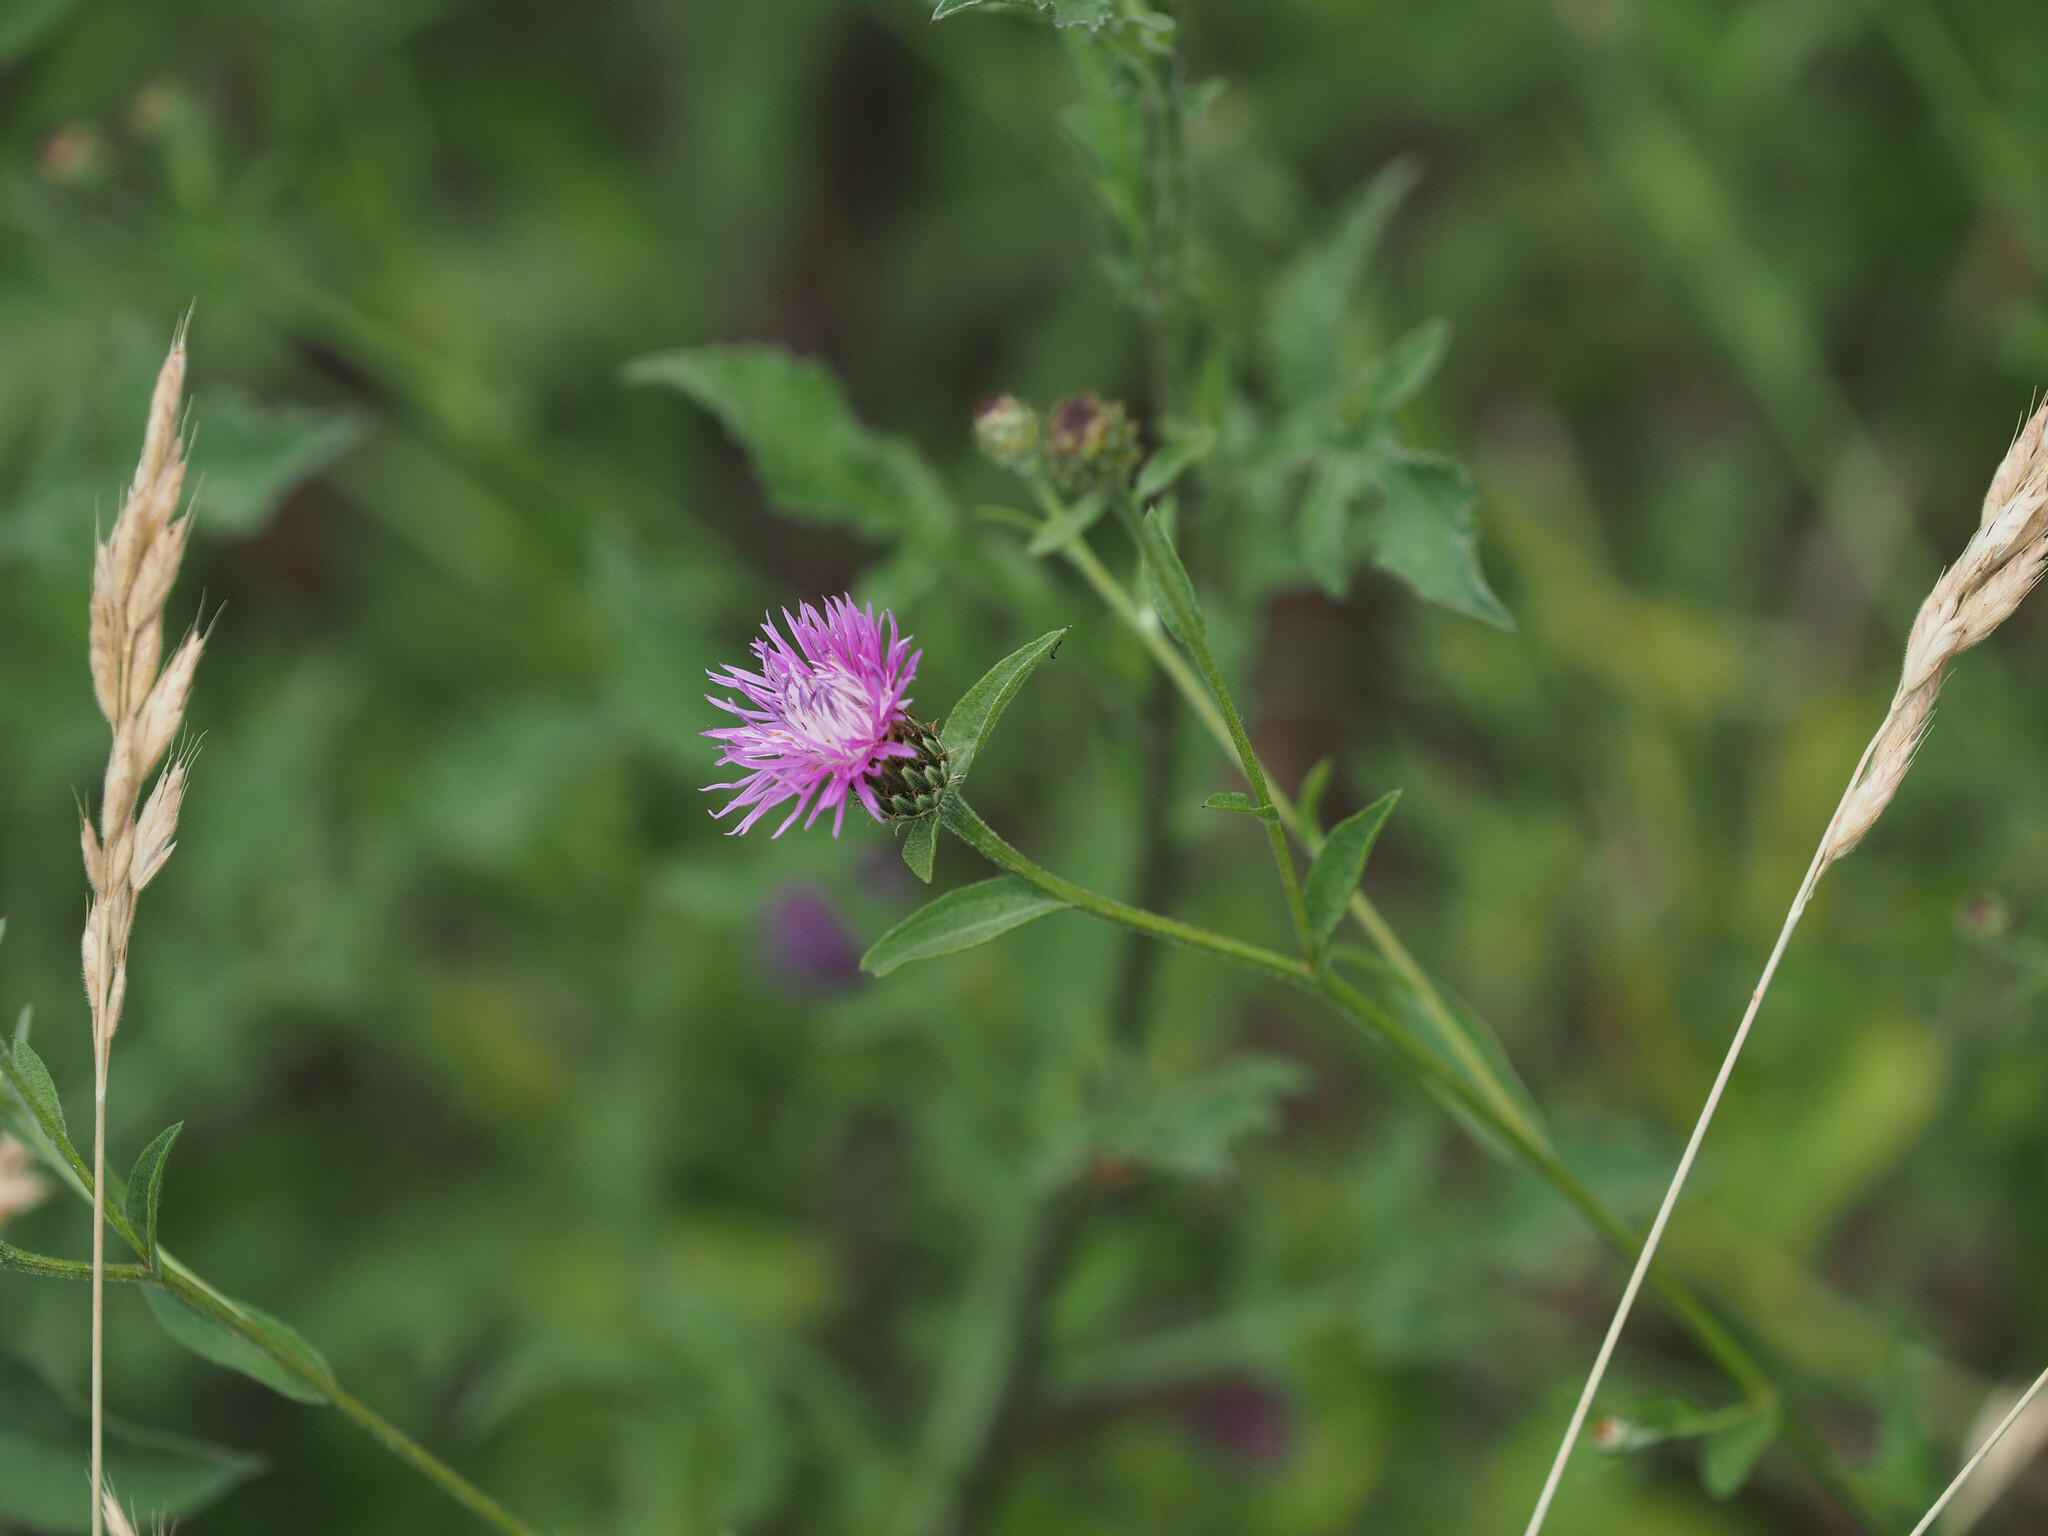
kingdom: Plantae
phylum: Tracheophyta
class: Magnoliopsida
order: Asterales
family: Asteraceae
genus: Centaurea
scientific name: Centaurea nigrescens
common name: Tyrol knapweed
